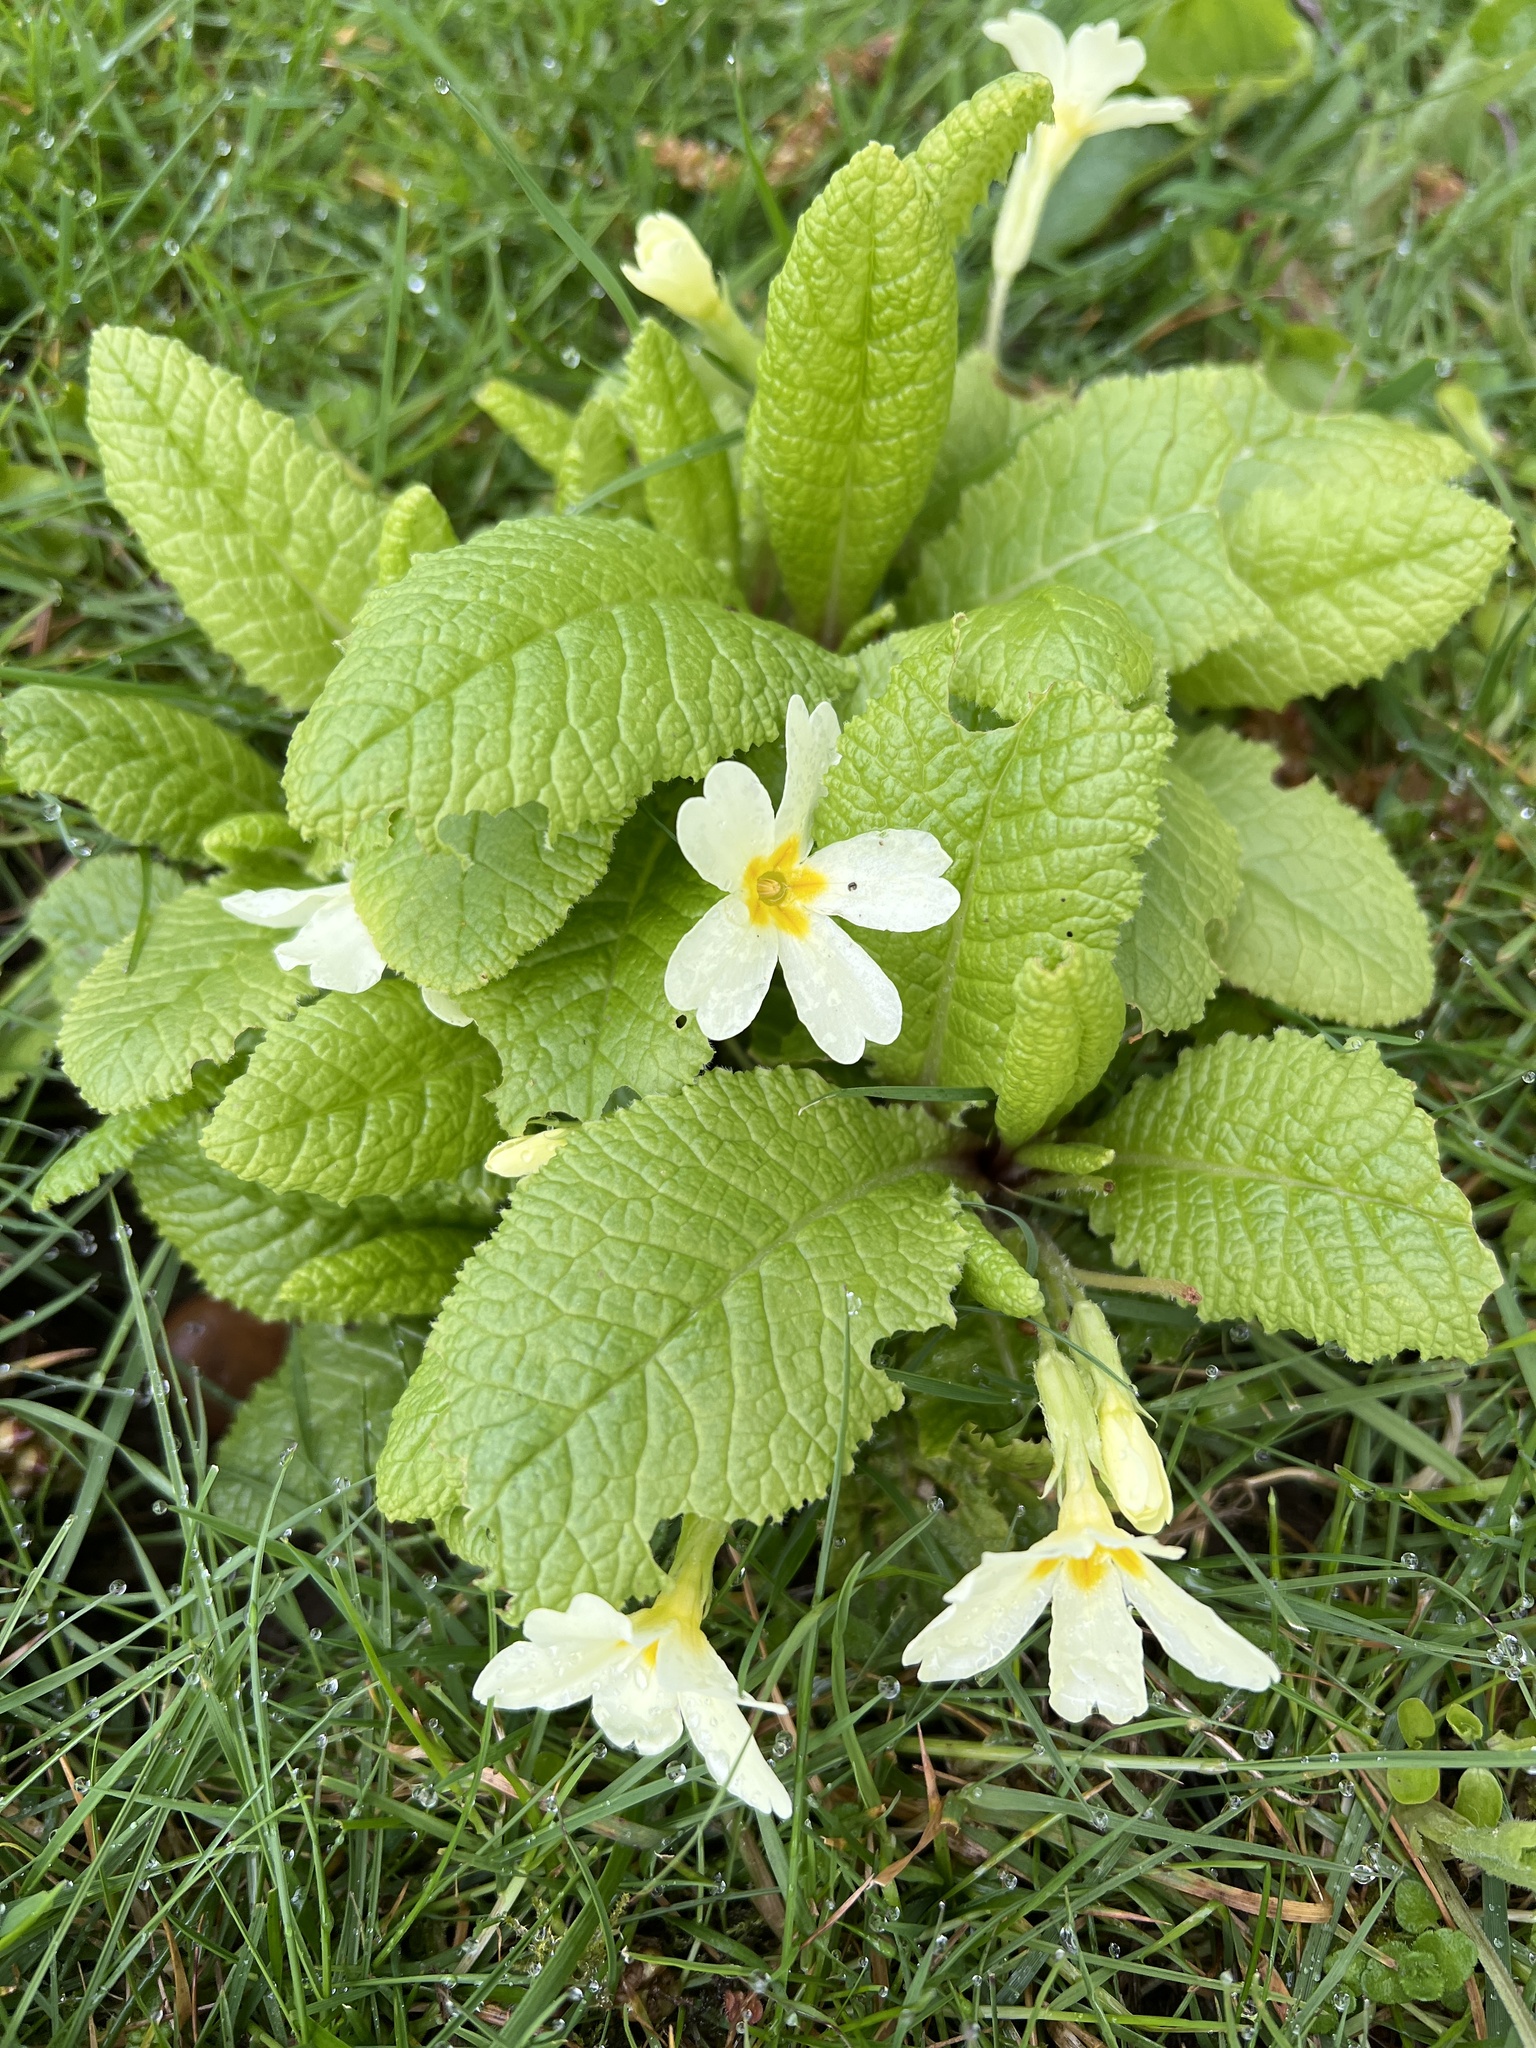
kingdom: Plantae
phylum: Tracheophyta
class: Magnoliopsida
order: Ericales
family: Primulaceae
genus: Primula
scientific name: Primula vulgaris
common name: Primrose
